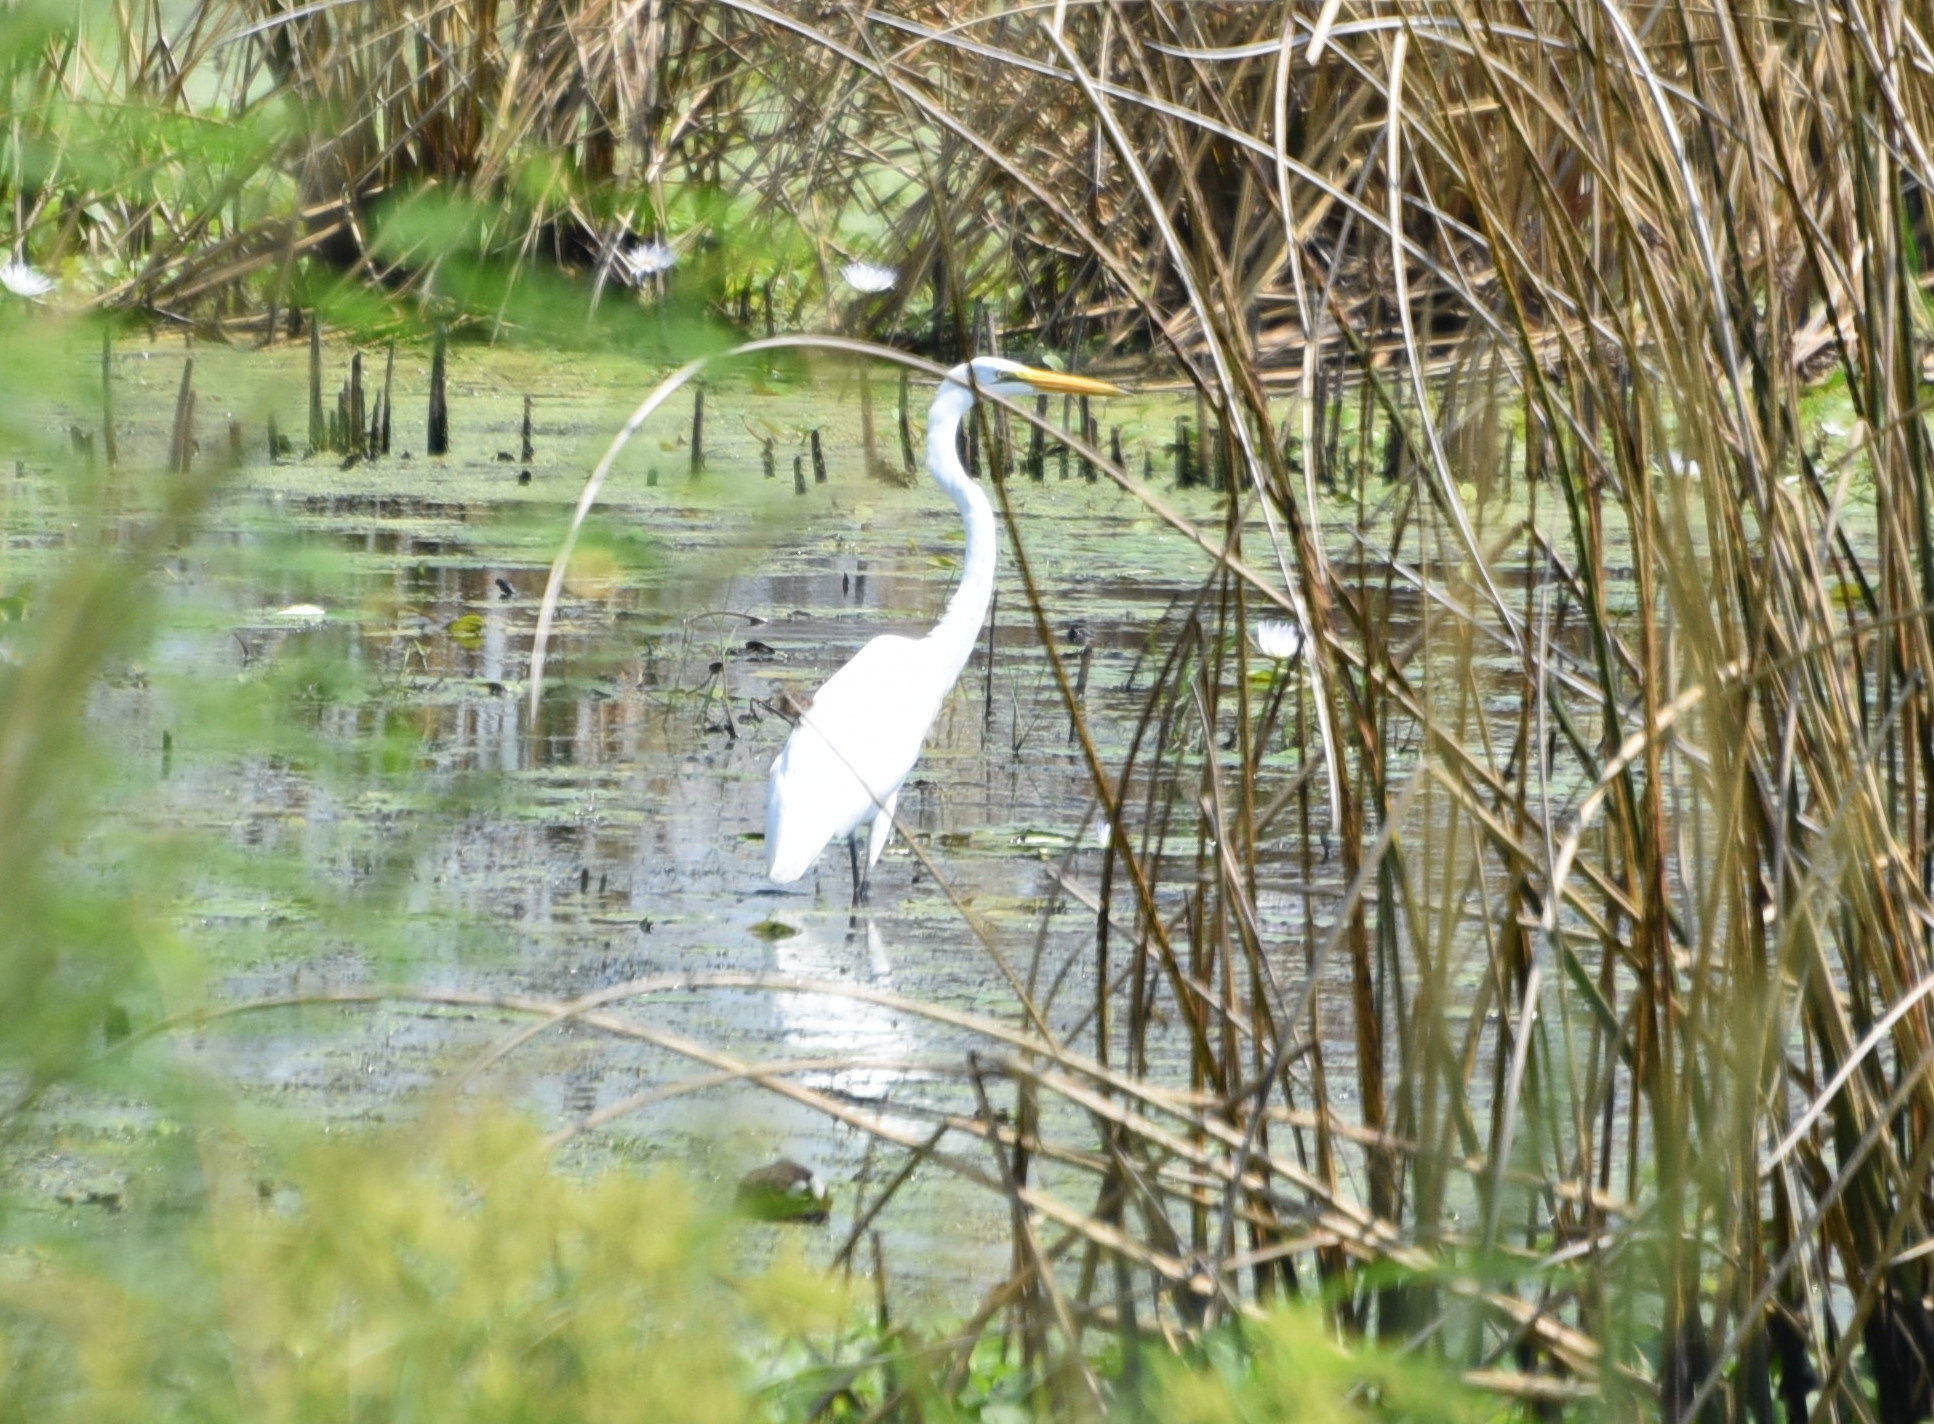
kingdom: Animalia
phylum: Chordata
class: Aves
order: Pelecaniformes
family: Ardeidae
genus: Ardea
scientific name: Ardea alba
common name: Great egret
